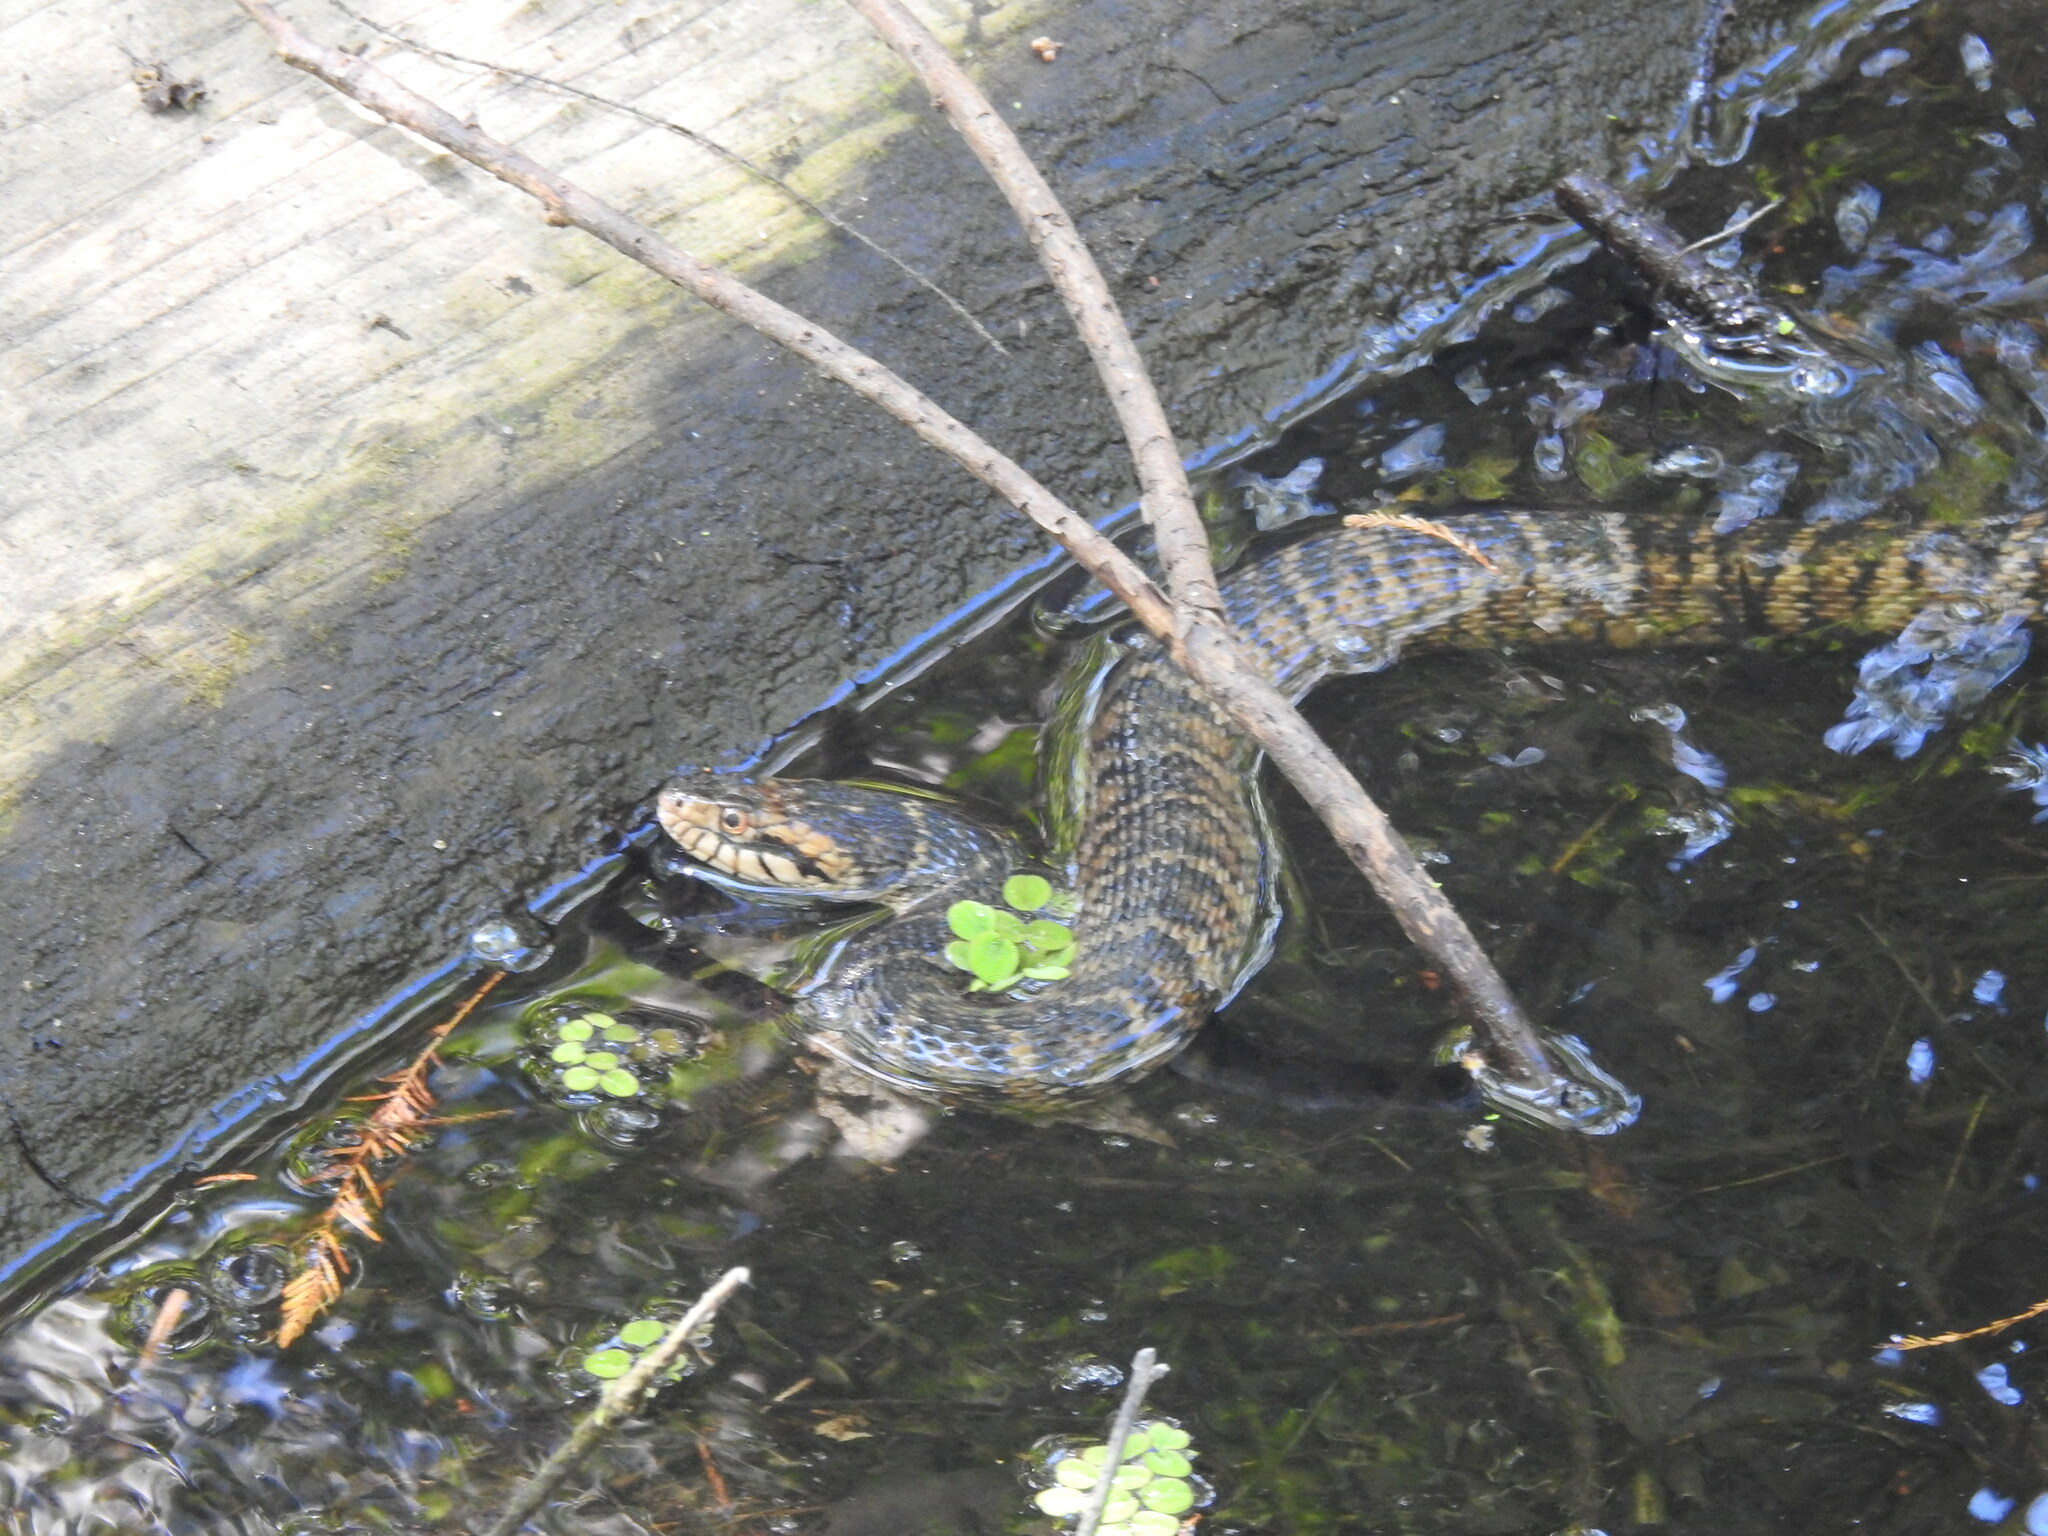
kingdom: Animalia
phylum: Chordata
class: Squamata
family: Colubridae
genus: Nerodia
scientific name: Nerodia fasciata
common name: Southern water snake
